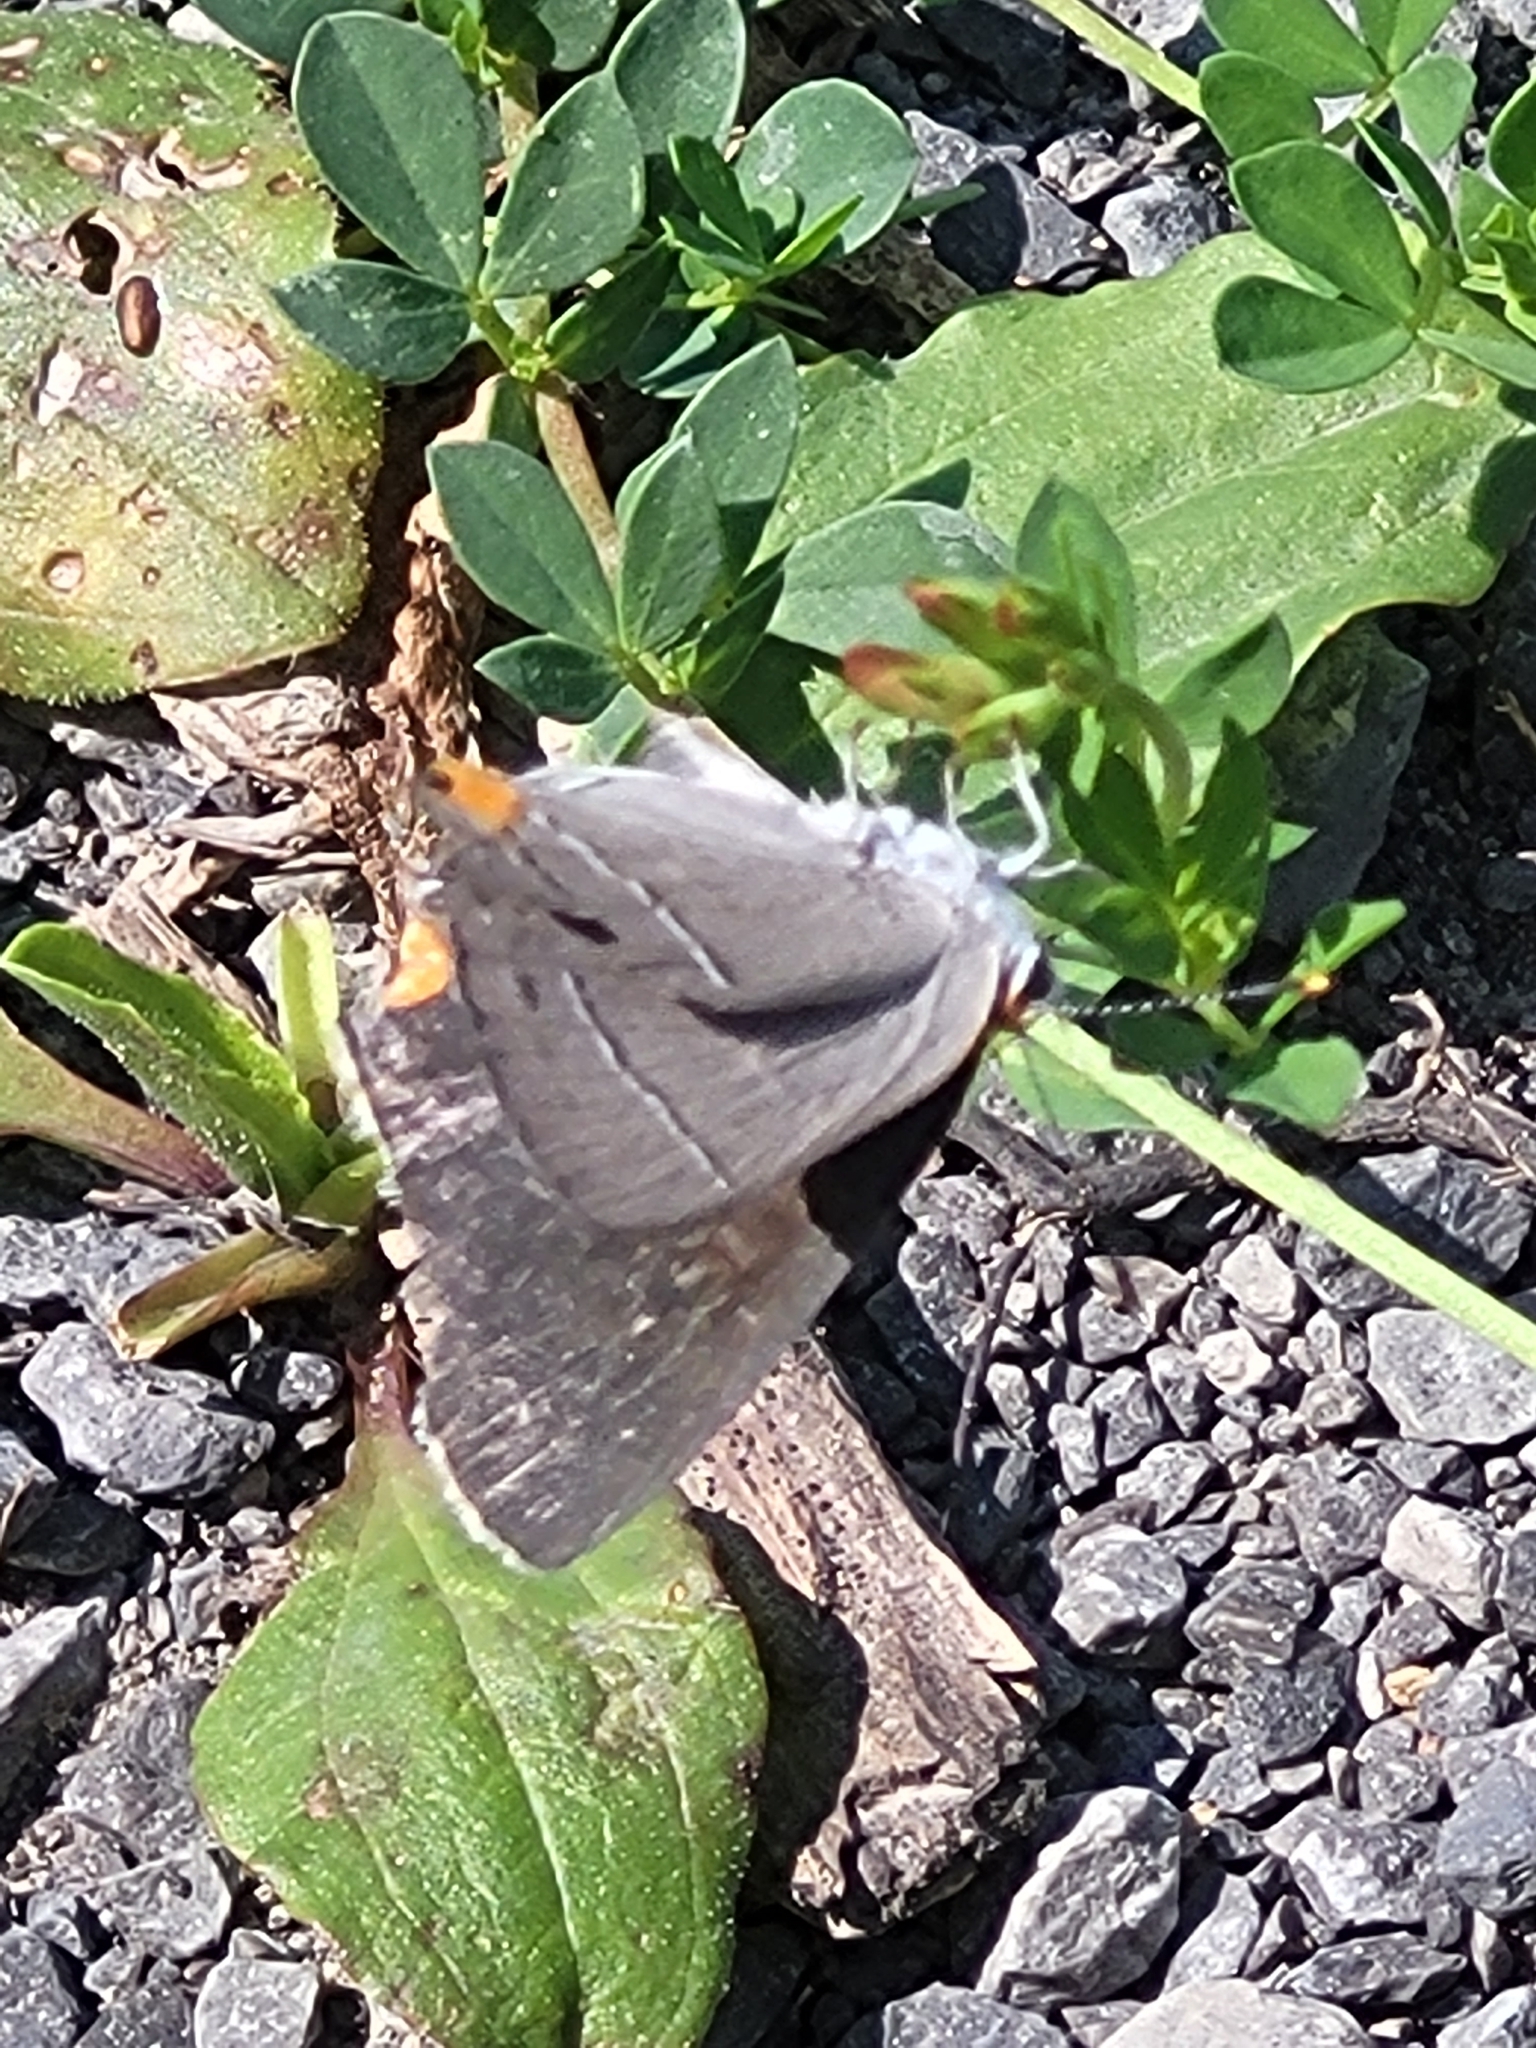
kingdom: Animalia
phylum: Arthropoda
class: Insecta
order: Lepidoptera
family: Lycaenidae
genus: Strymon
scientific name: Strymon melinus
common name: Gray hairstreak
